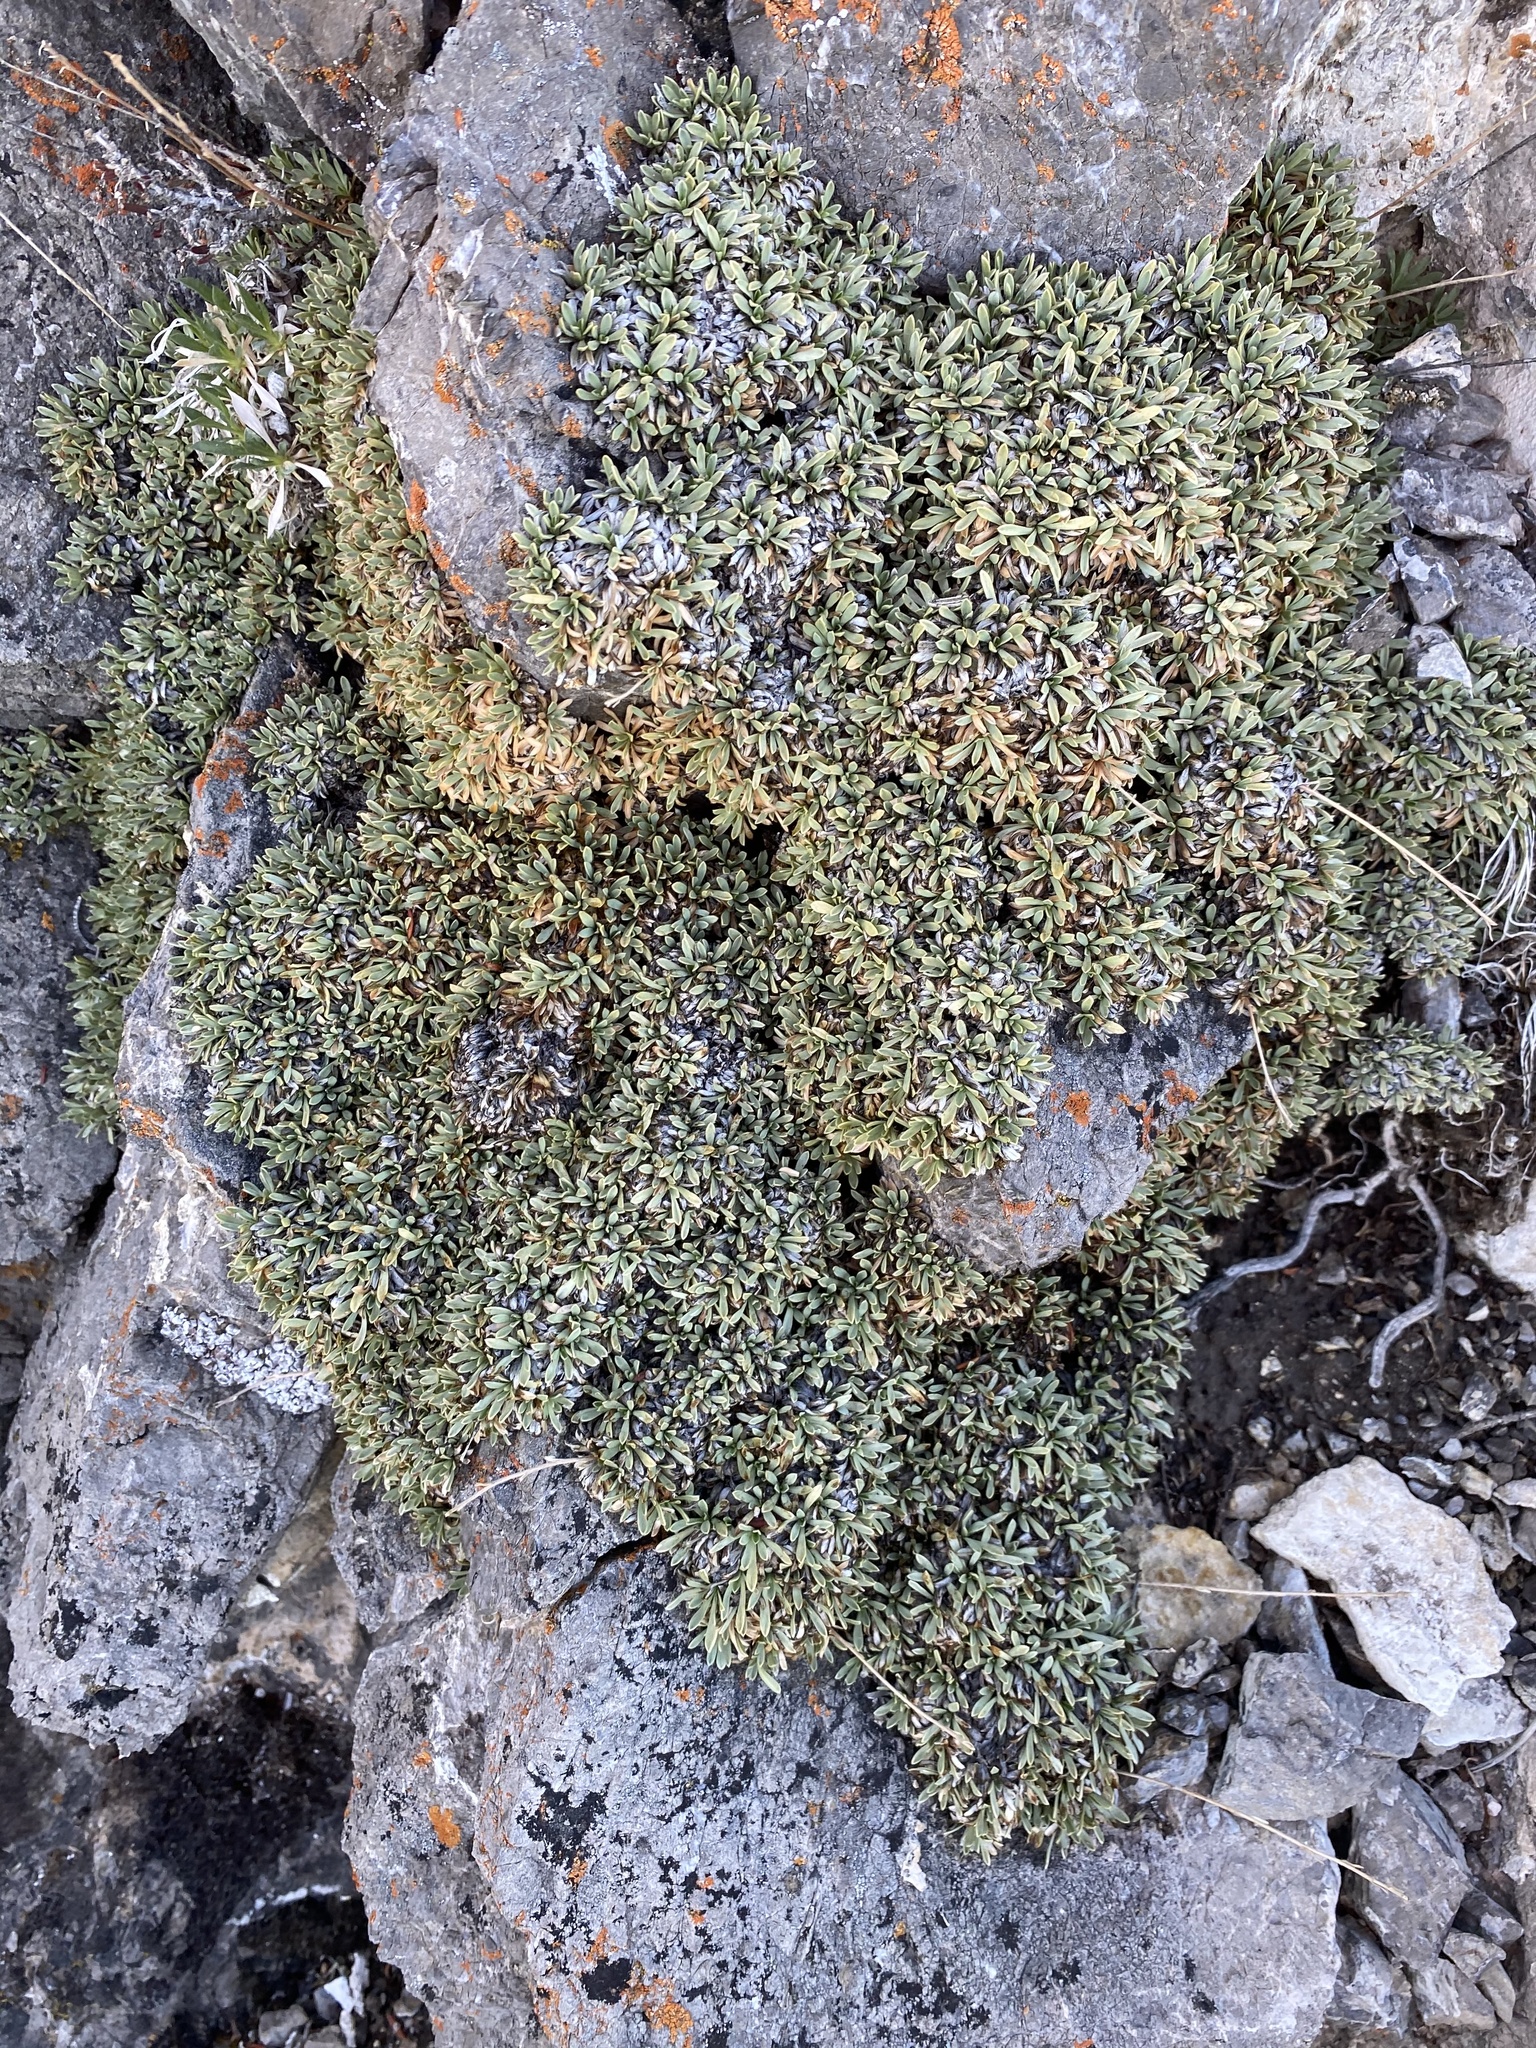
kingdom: Plantae
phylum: Tracheophyta
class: Magnoliopsida
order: Rosales
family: Rosaceae
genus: Petrophytum
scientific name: Petrophytum caespitosum
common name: Mat rockspirea
